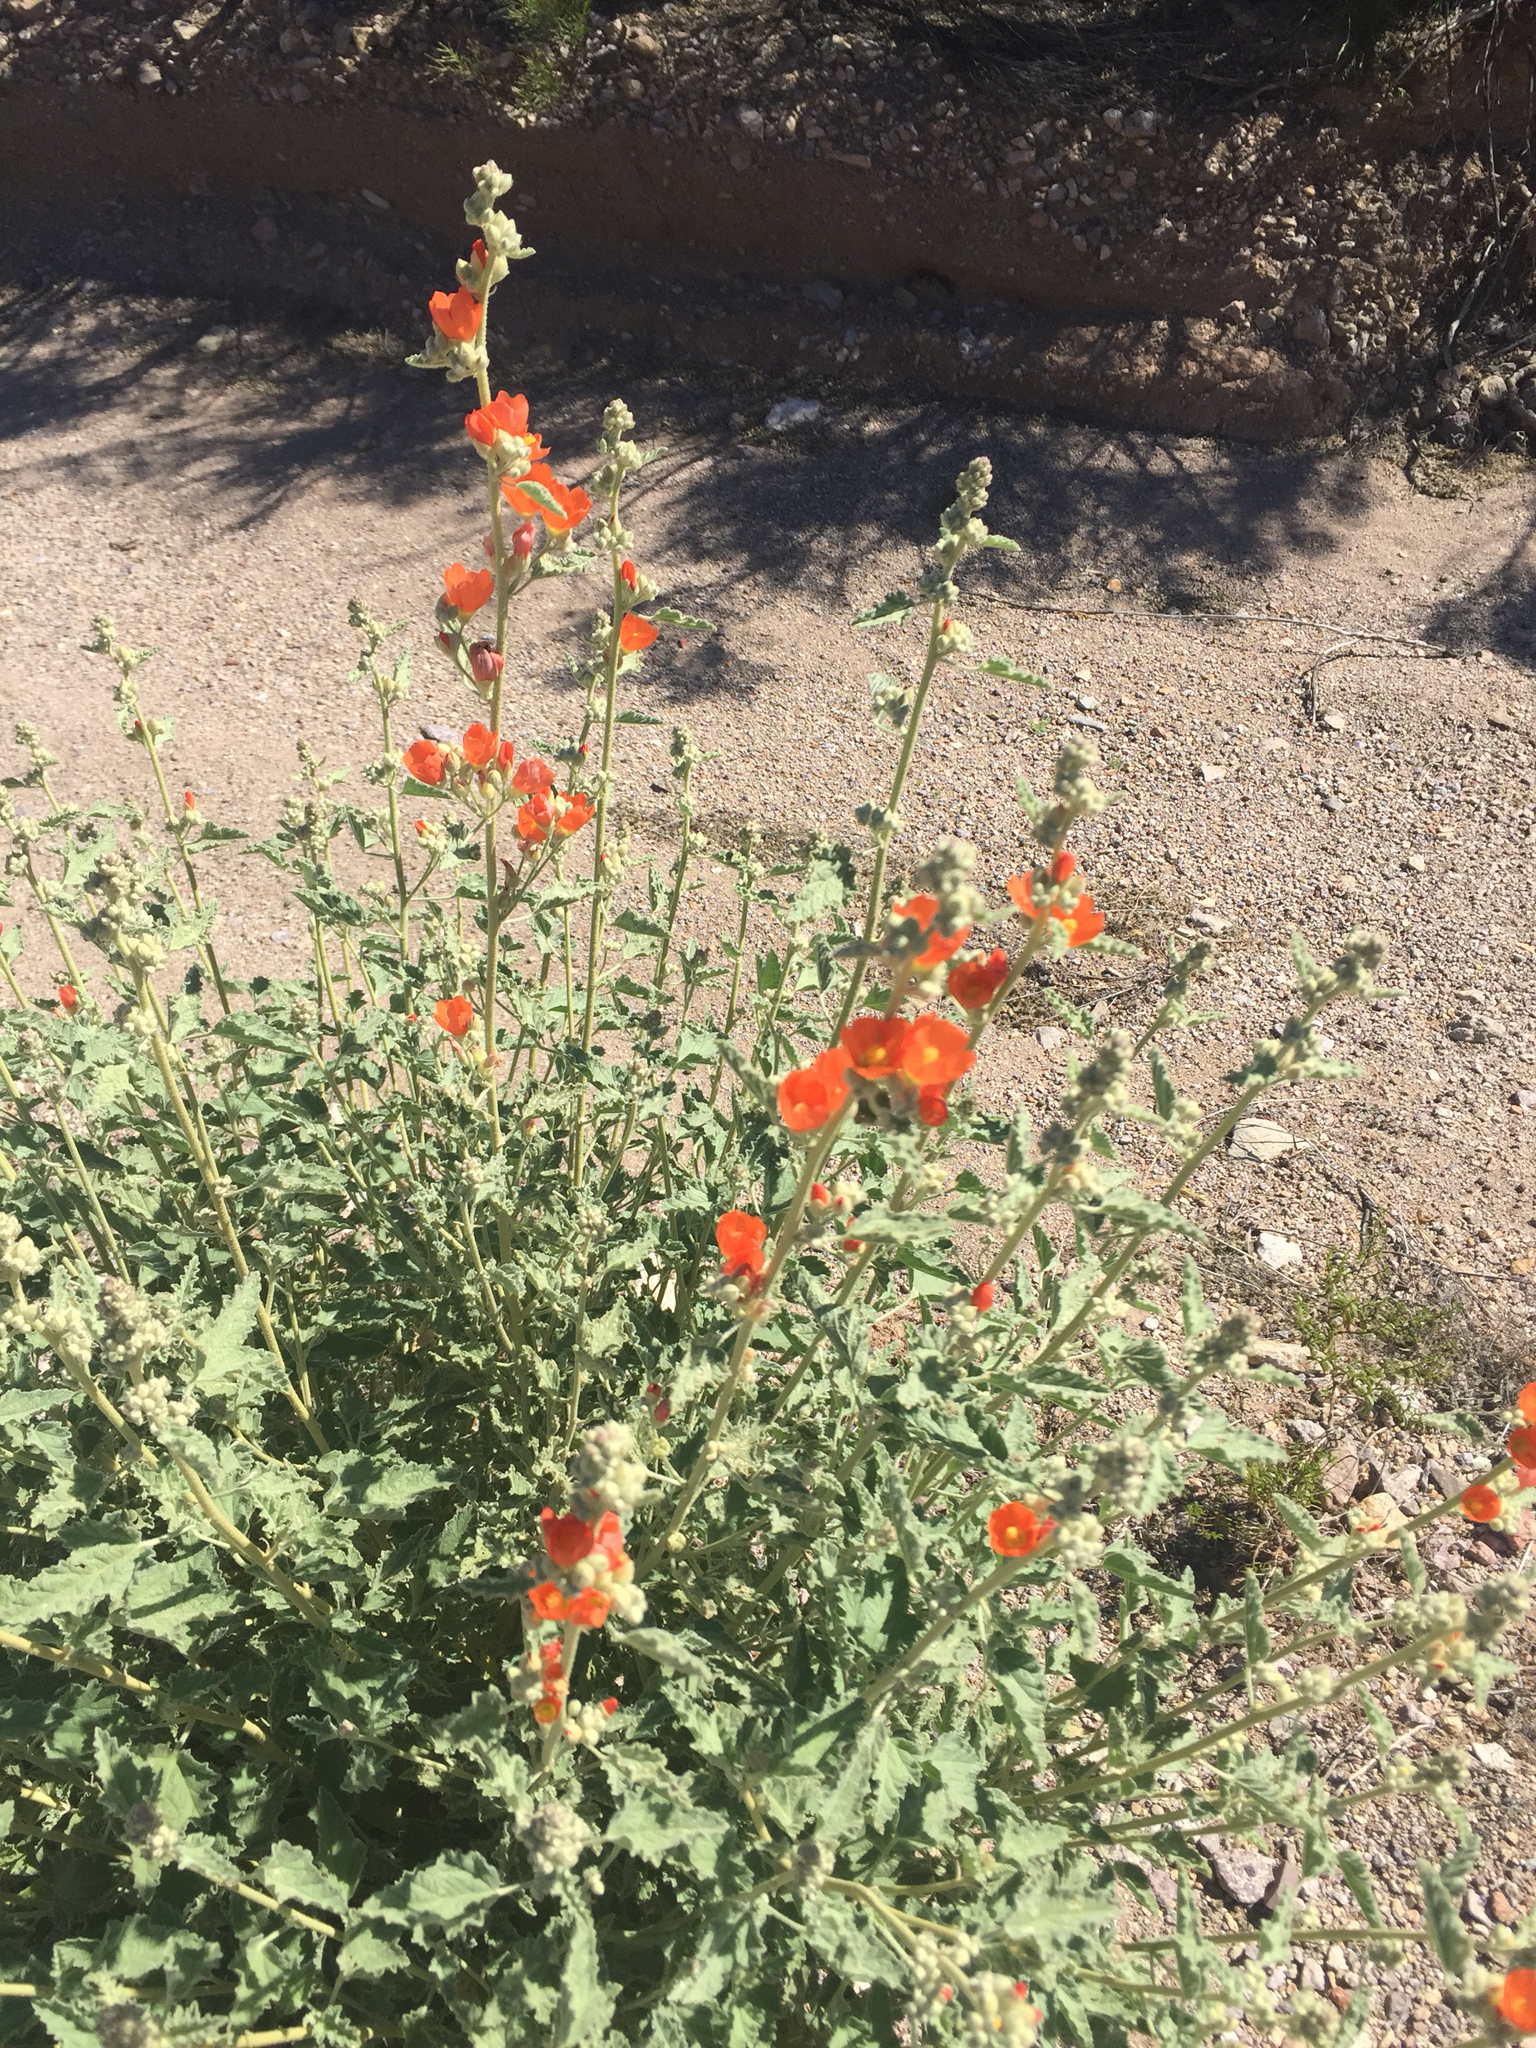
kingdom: Plantae
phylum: Tracheophyta
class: Magnoliopsida
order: Malvales
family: Malvaceae
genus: Sphaeralcea
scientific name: Sphaeralcea ambigua
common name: Apricot globe-mallow
